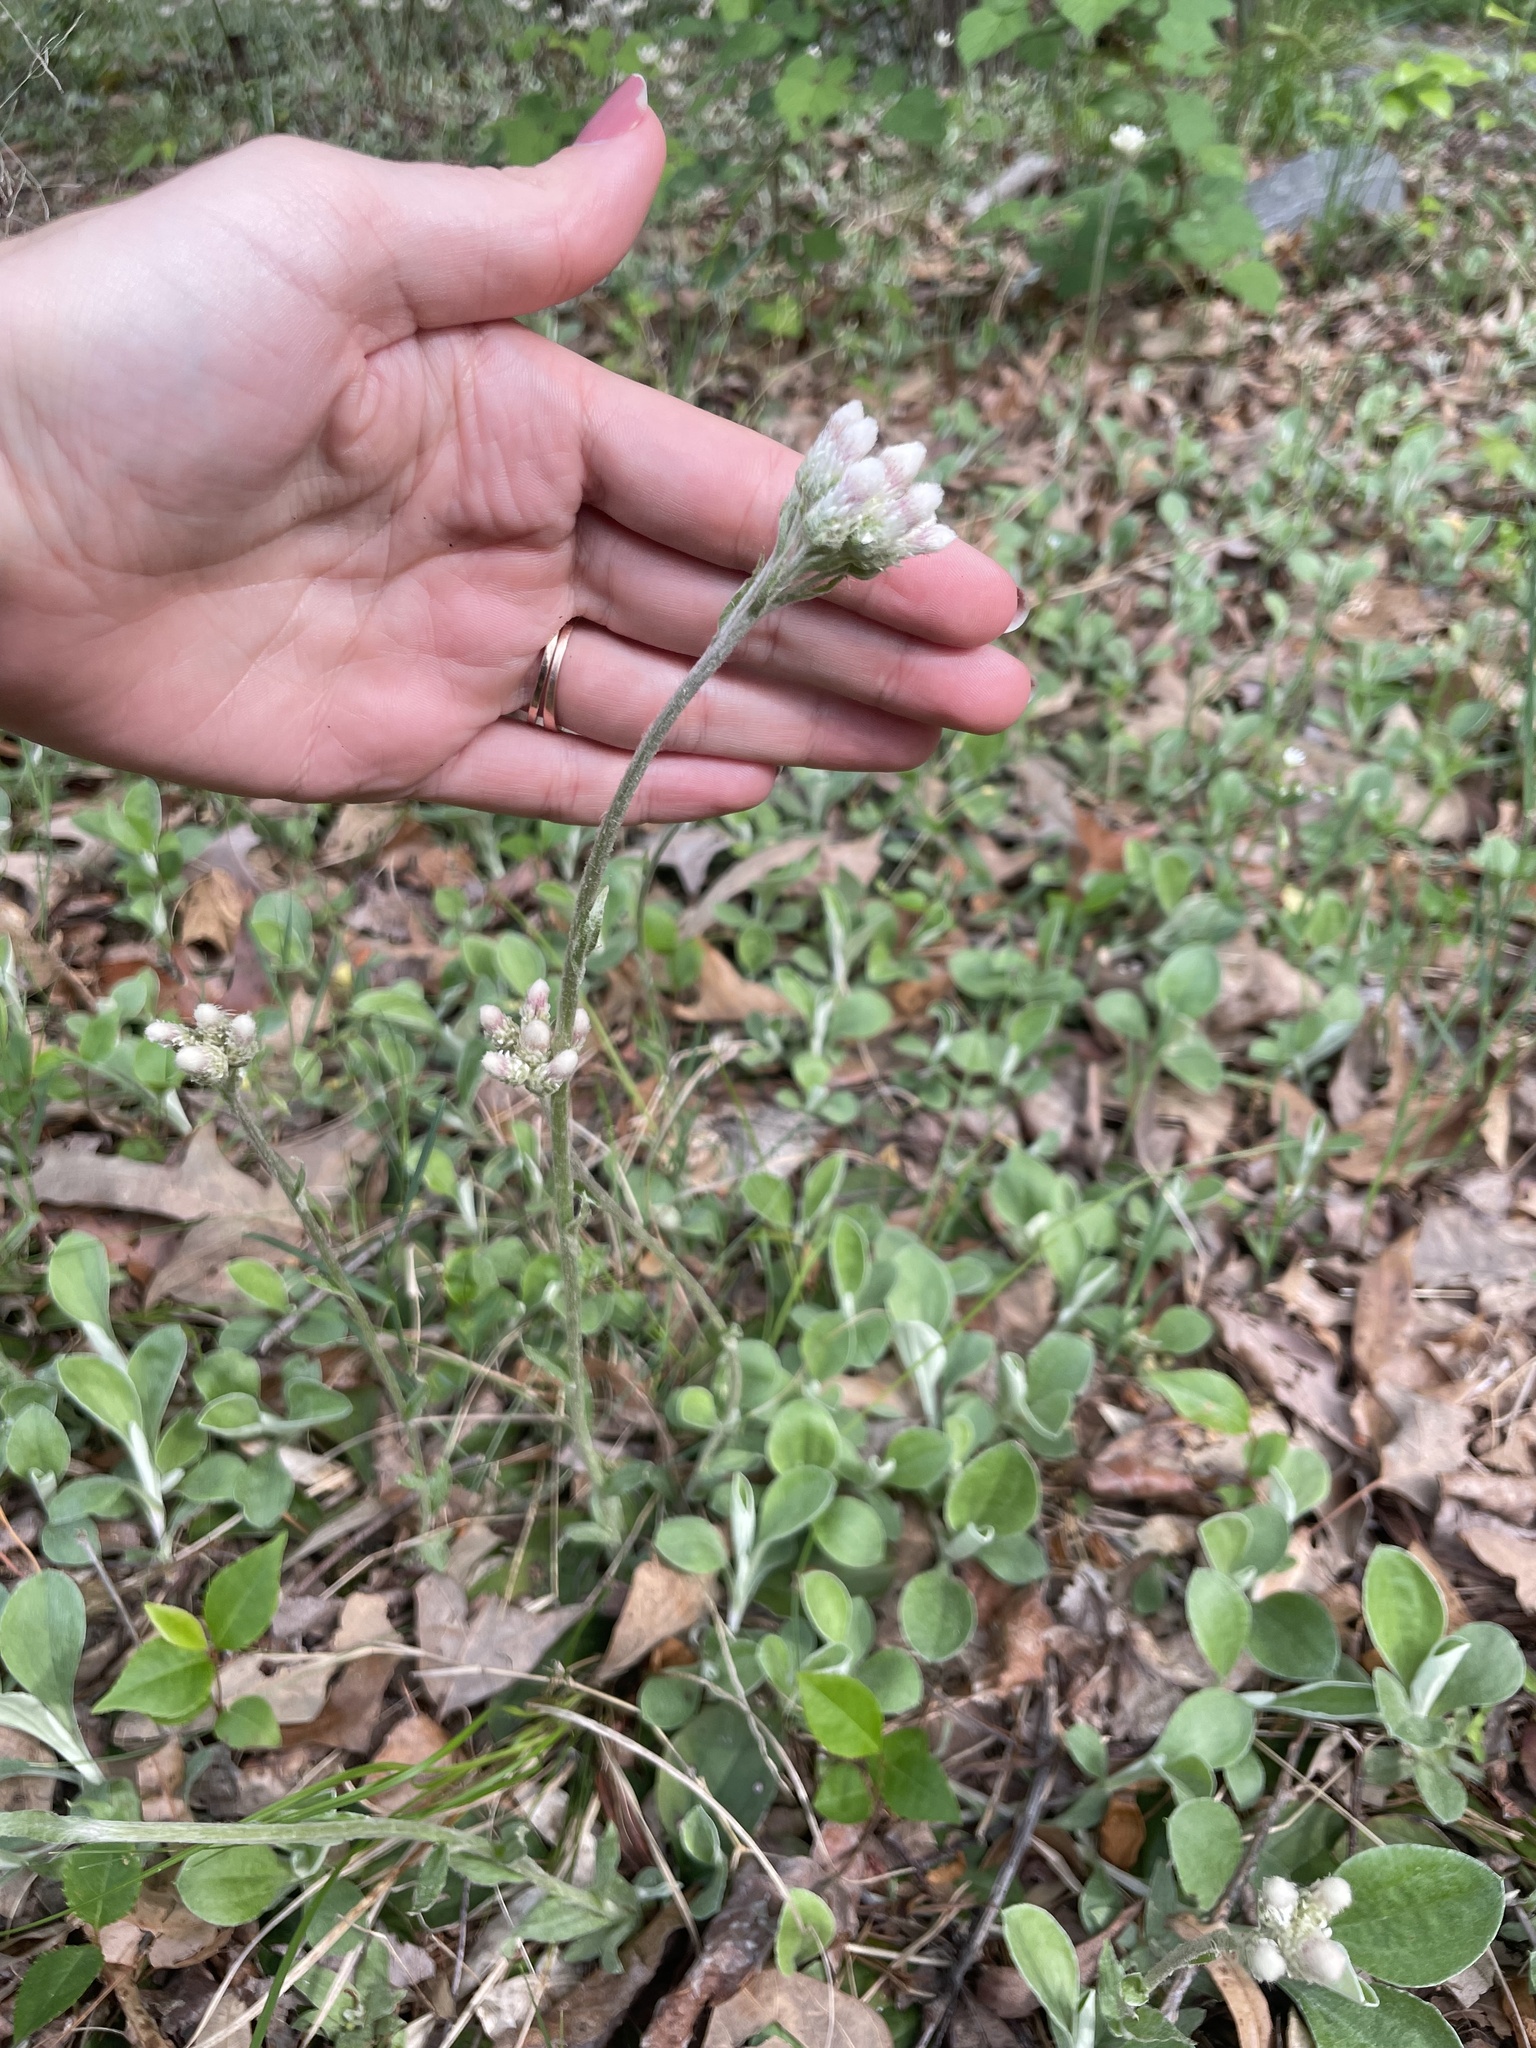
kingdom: Plantae
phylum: Tracheophyta
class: Magnoliopsida
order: Asterales
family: Asteraceae
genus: Antennaria
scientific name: Antennaria plantaginifolia
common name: Plantain-leaved pussytoes
